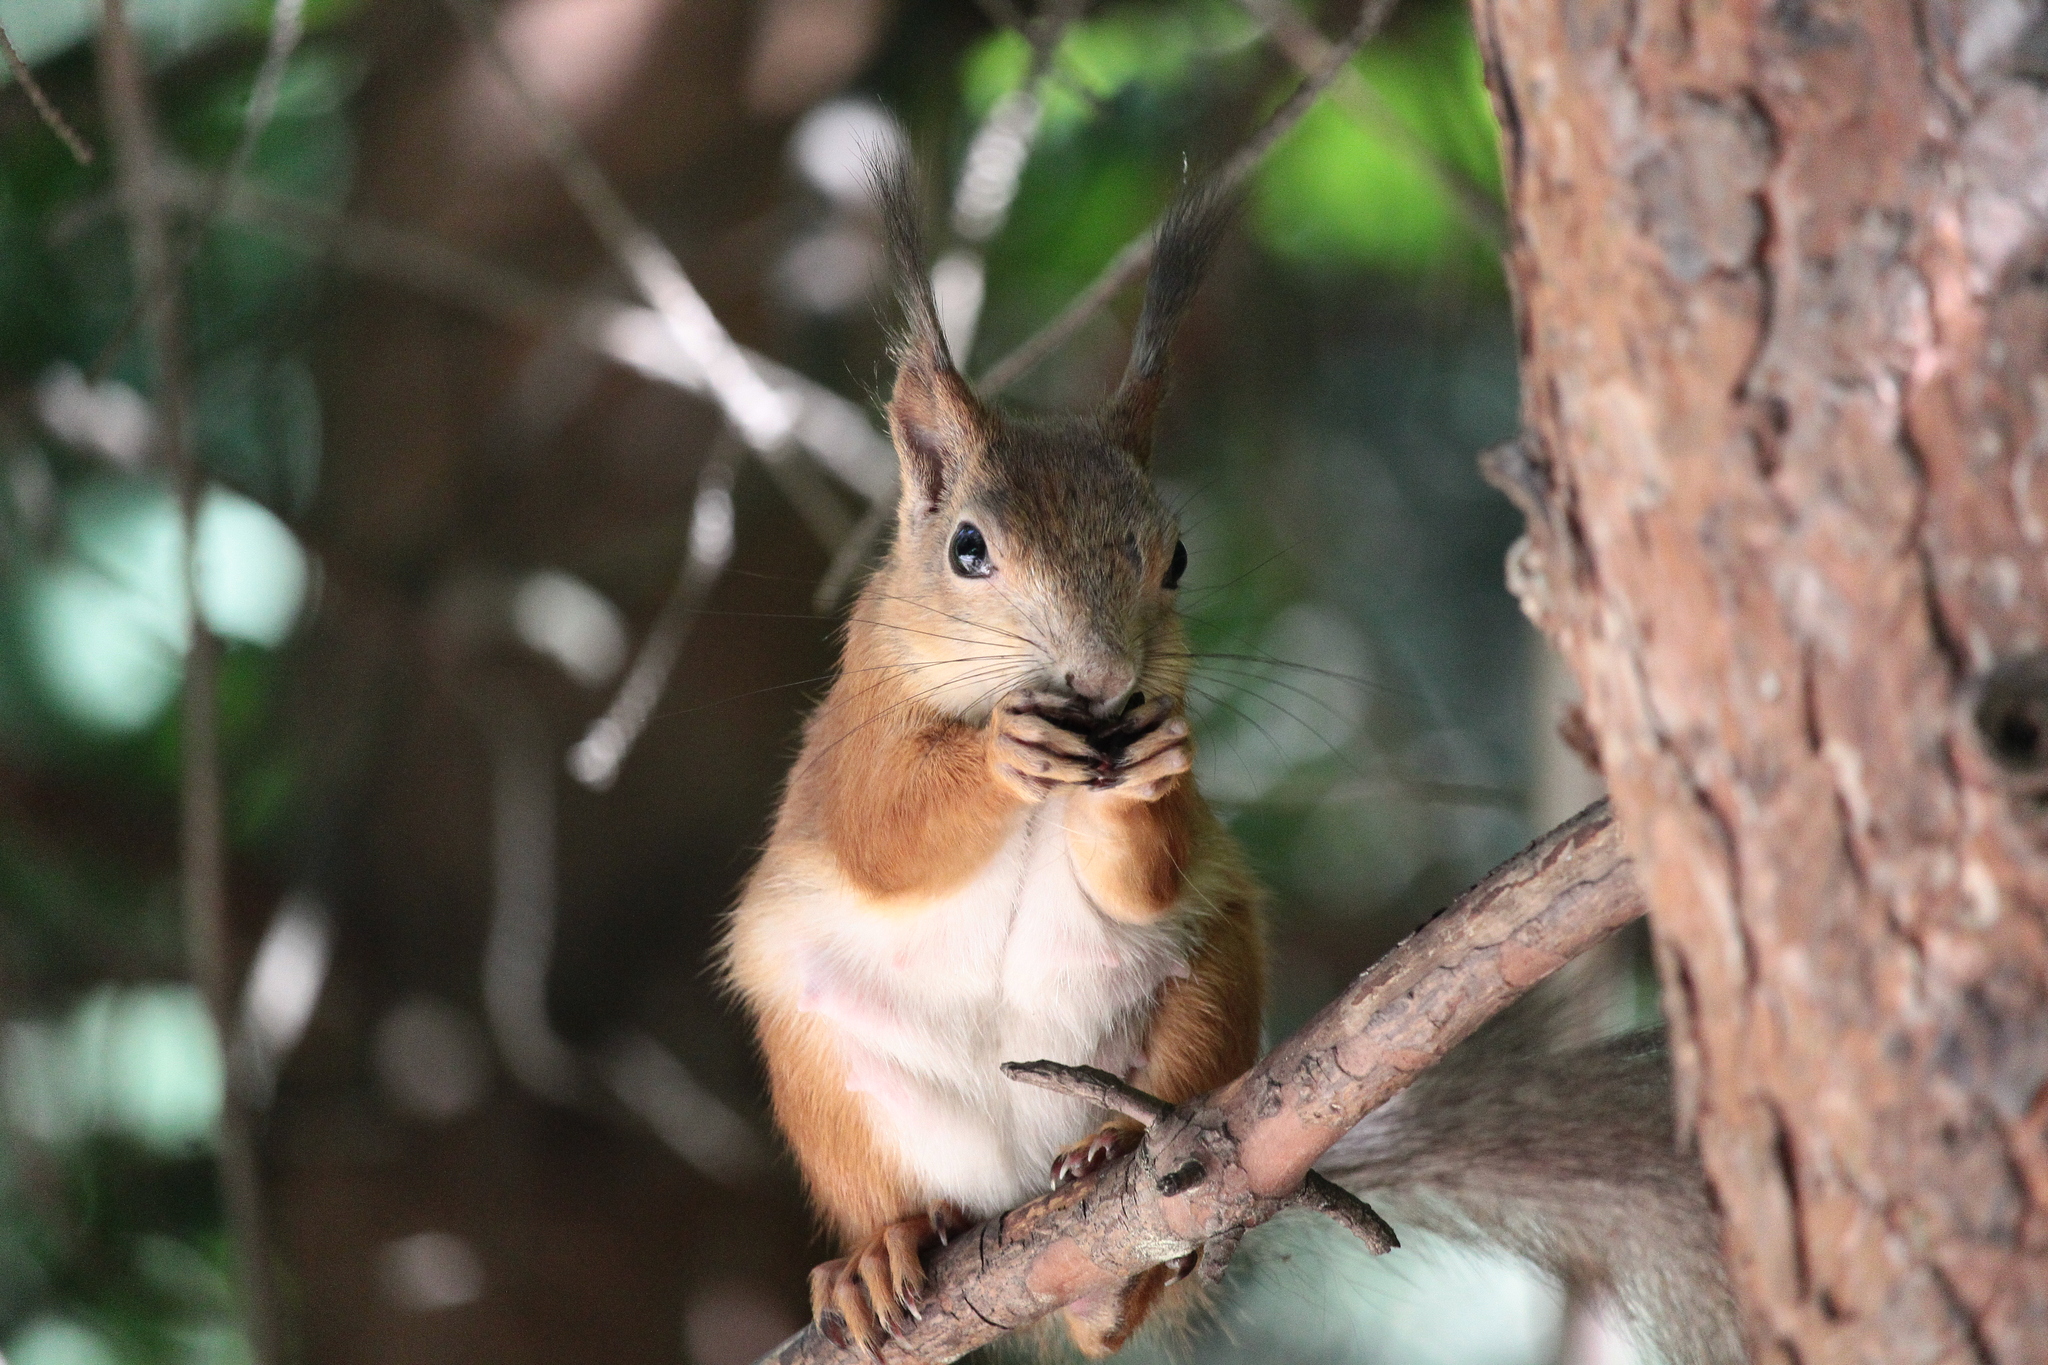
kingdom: Animalia
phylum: Chordata
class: Mammalia
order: Rodentia
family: Sciuridae
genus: Sciurus
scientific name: Sciurus vulgaris
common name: Eurasian red squirrel
